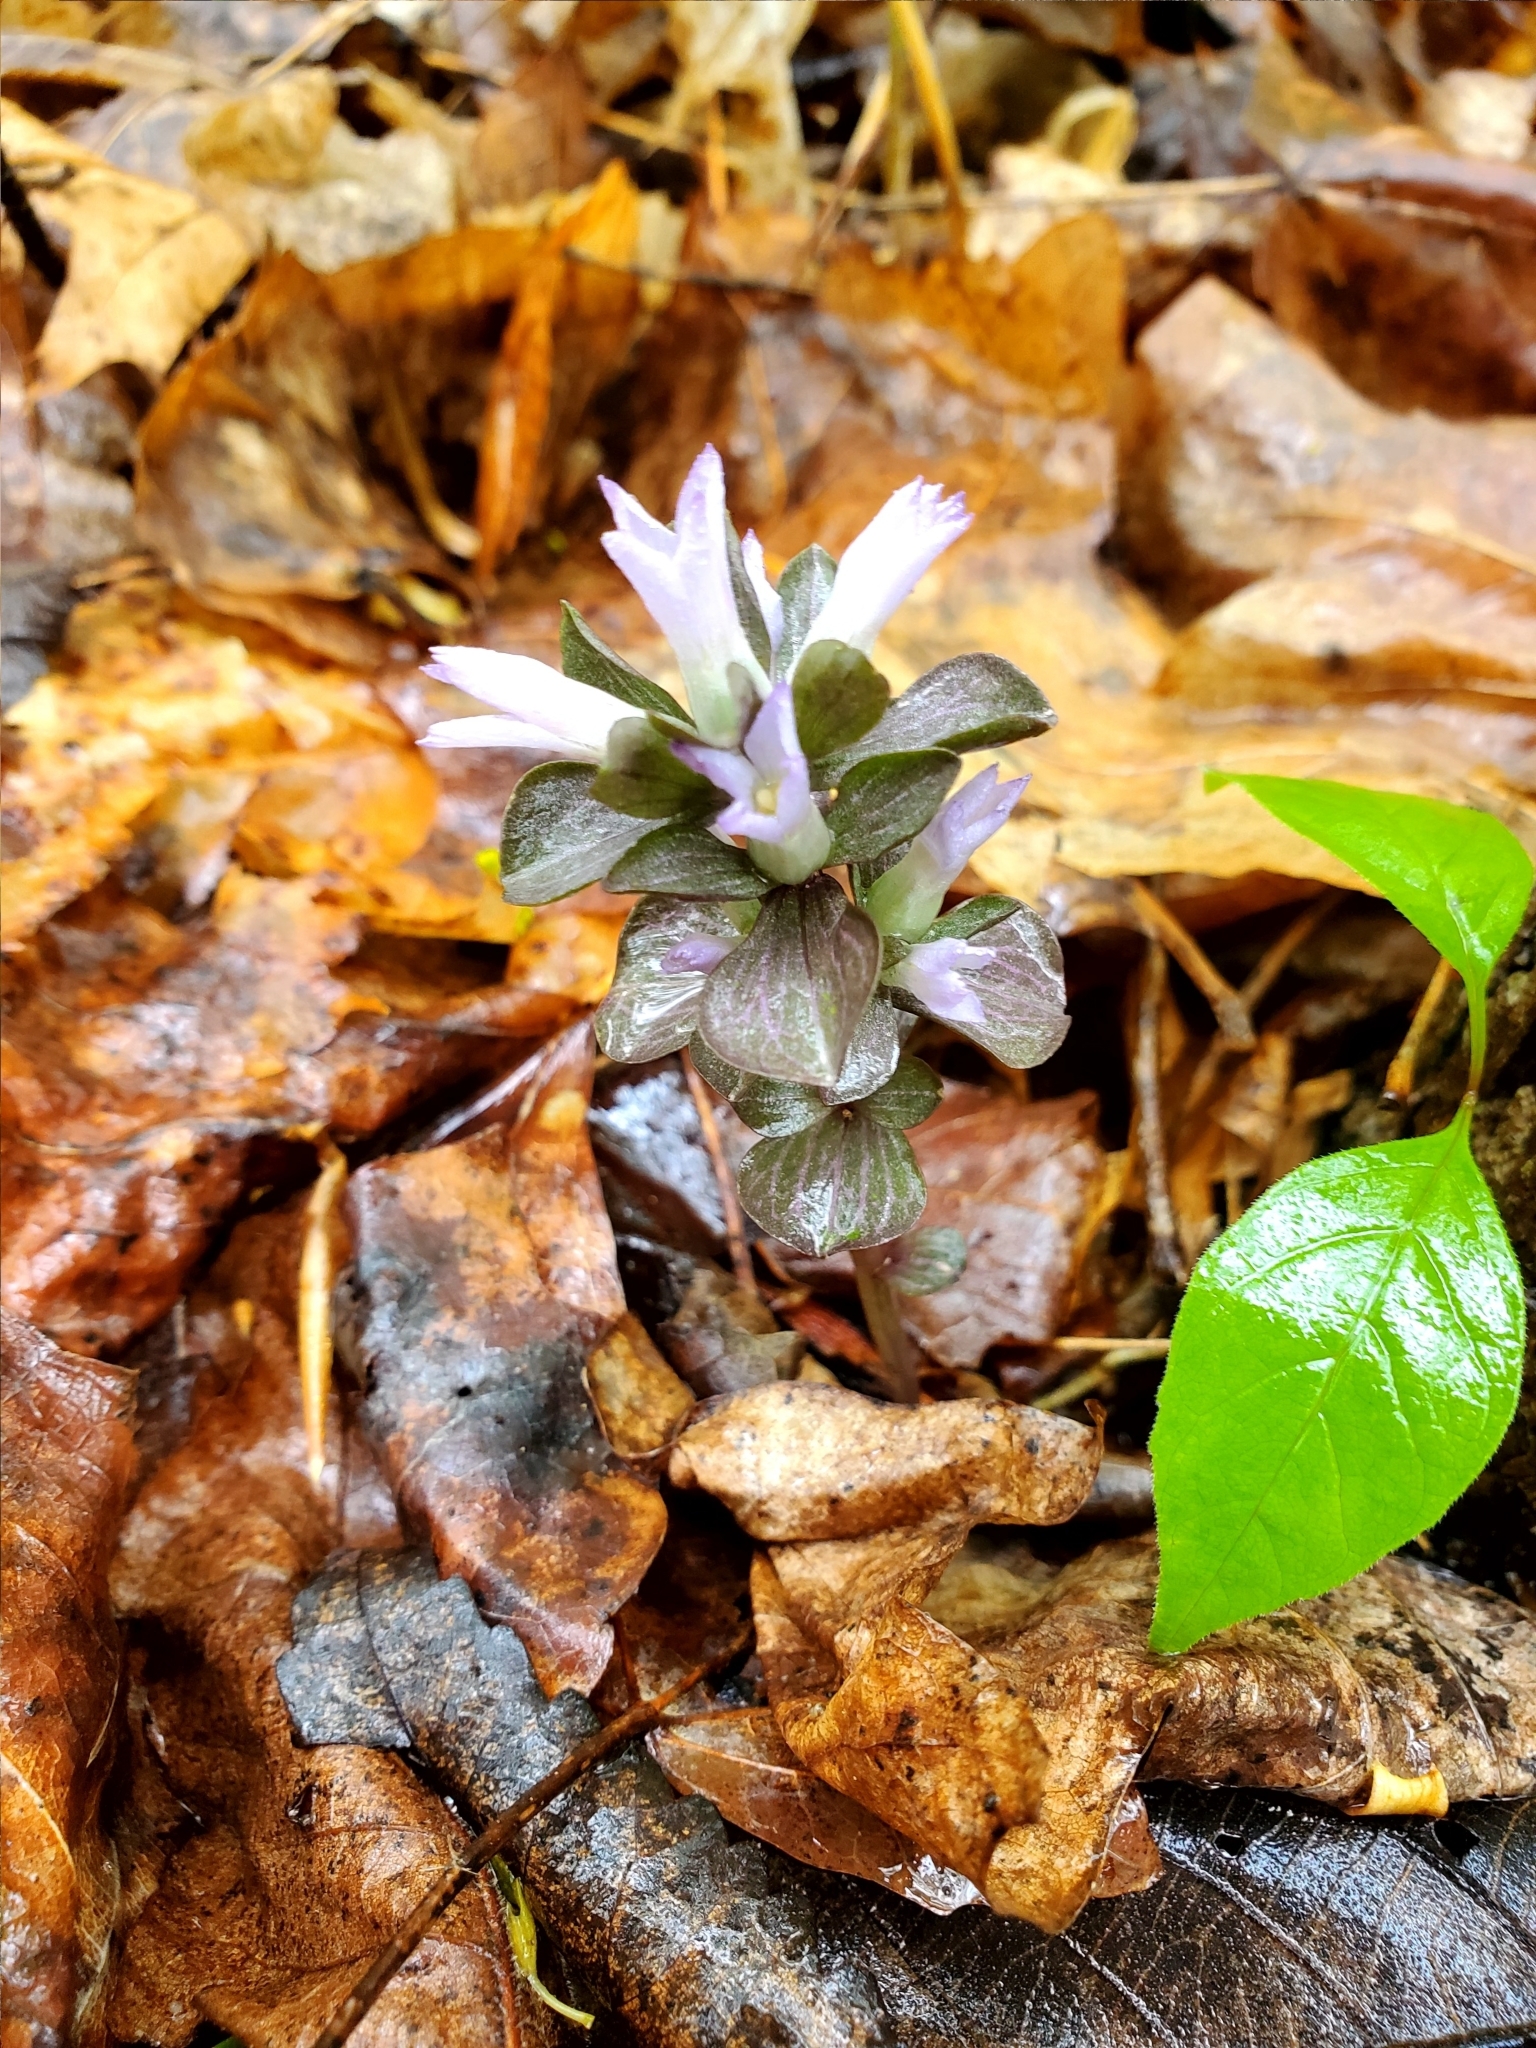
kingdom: Plantae
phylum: Tracheophyta
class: Magnoliopsida
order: Gentianales
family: Gentianaceae
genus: Obolaria
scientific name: Obolaria virginica
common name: Pennywort
